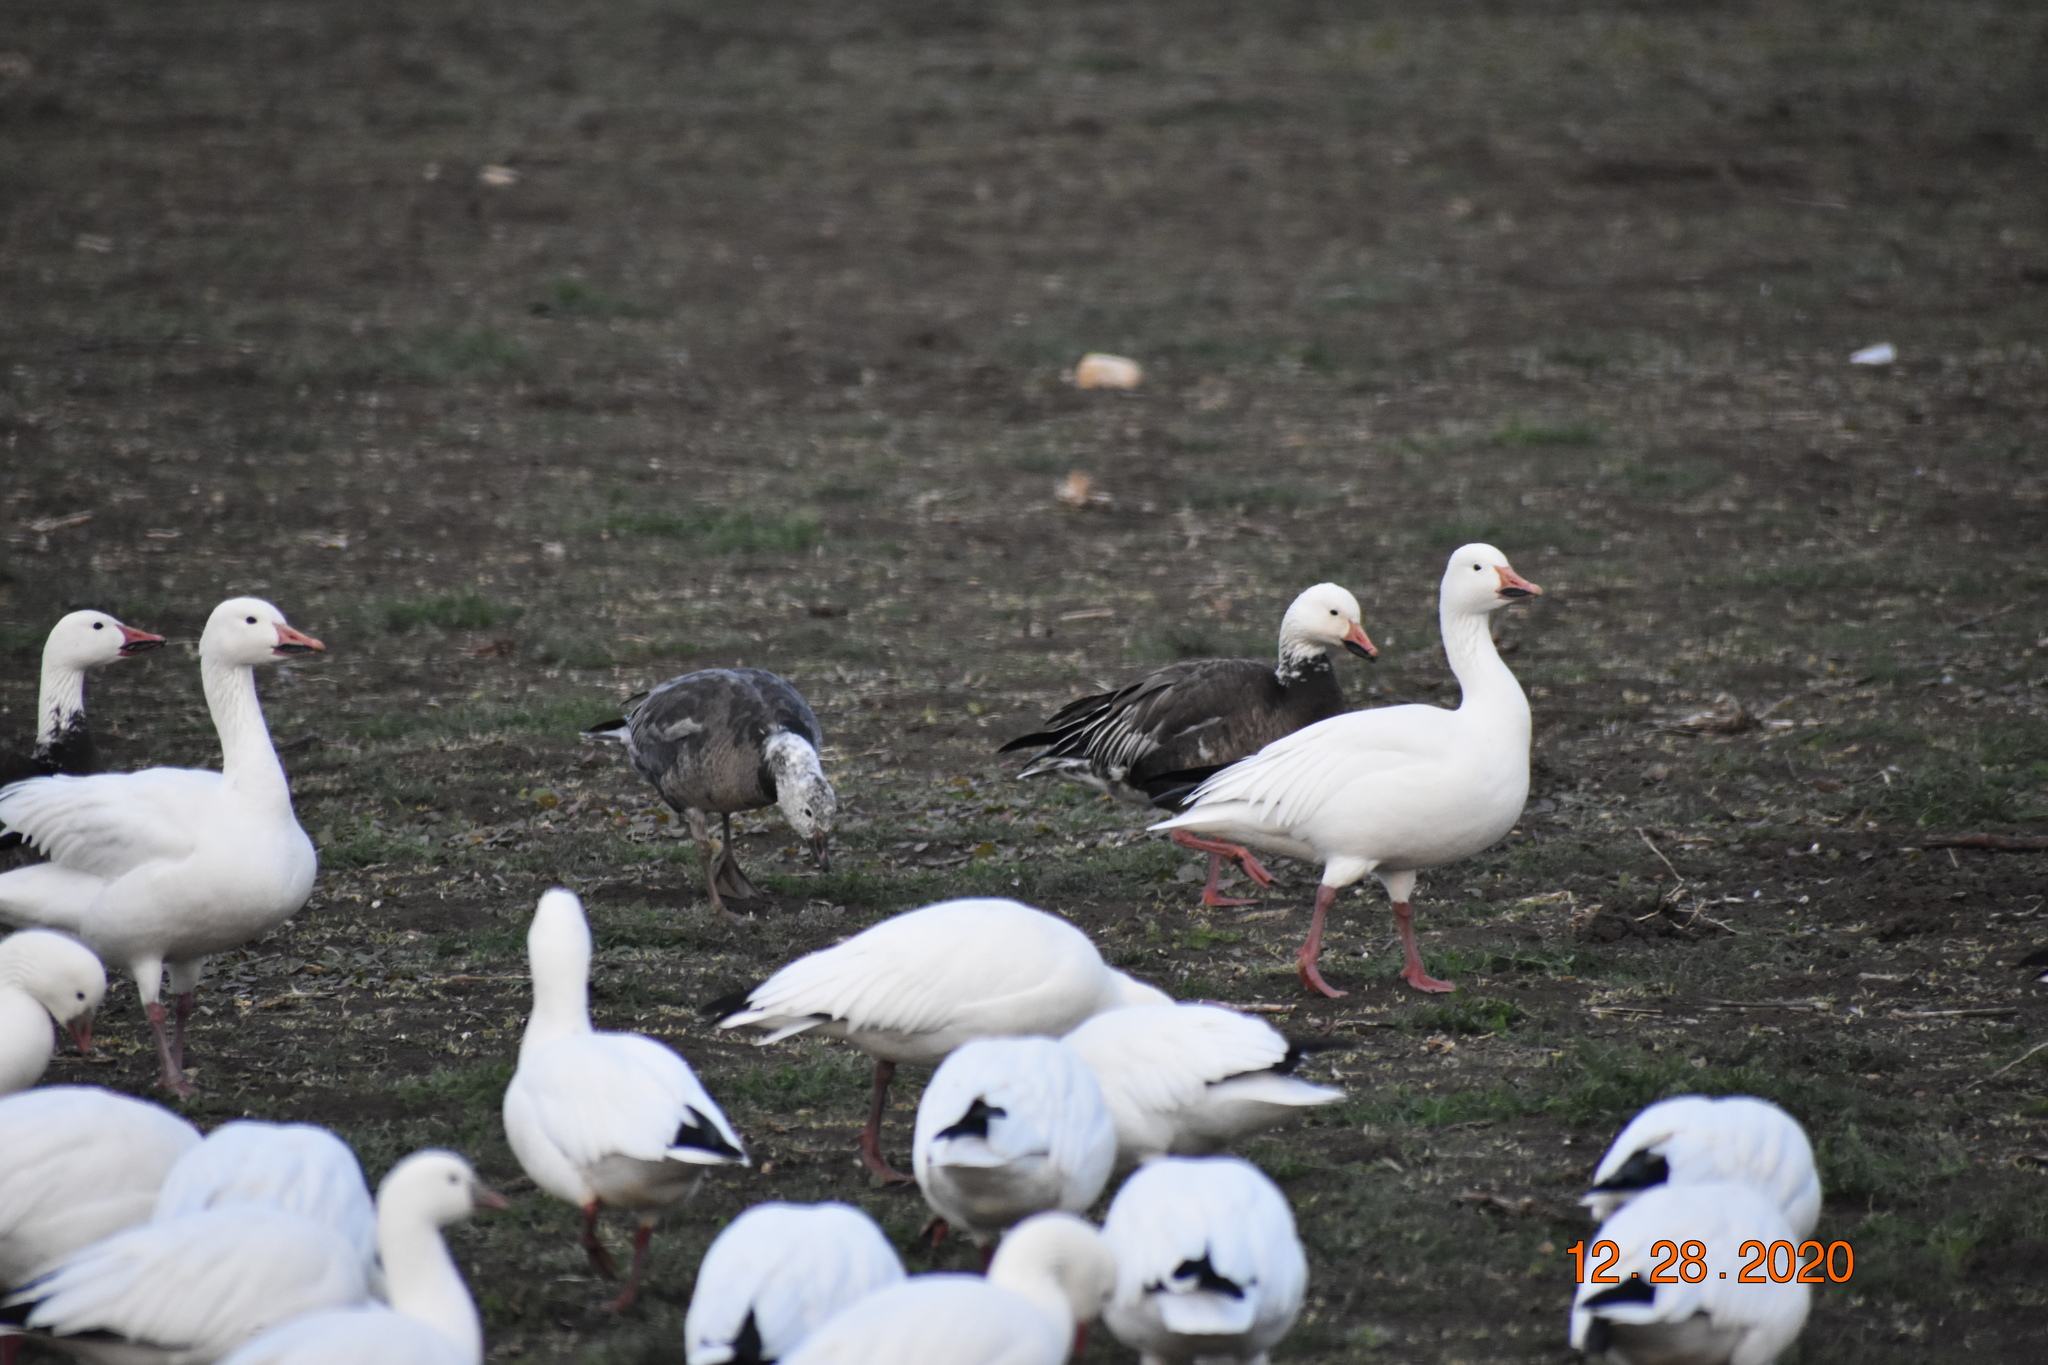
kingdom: Animalia
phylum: Chordata
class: Aves
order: Anseriformes
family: Anatidae
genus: Anser
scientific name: Anser caerulescens
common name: Snow goose
